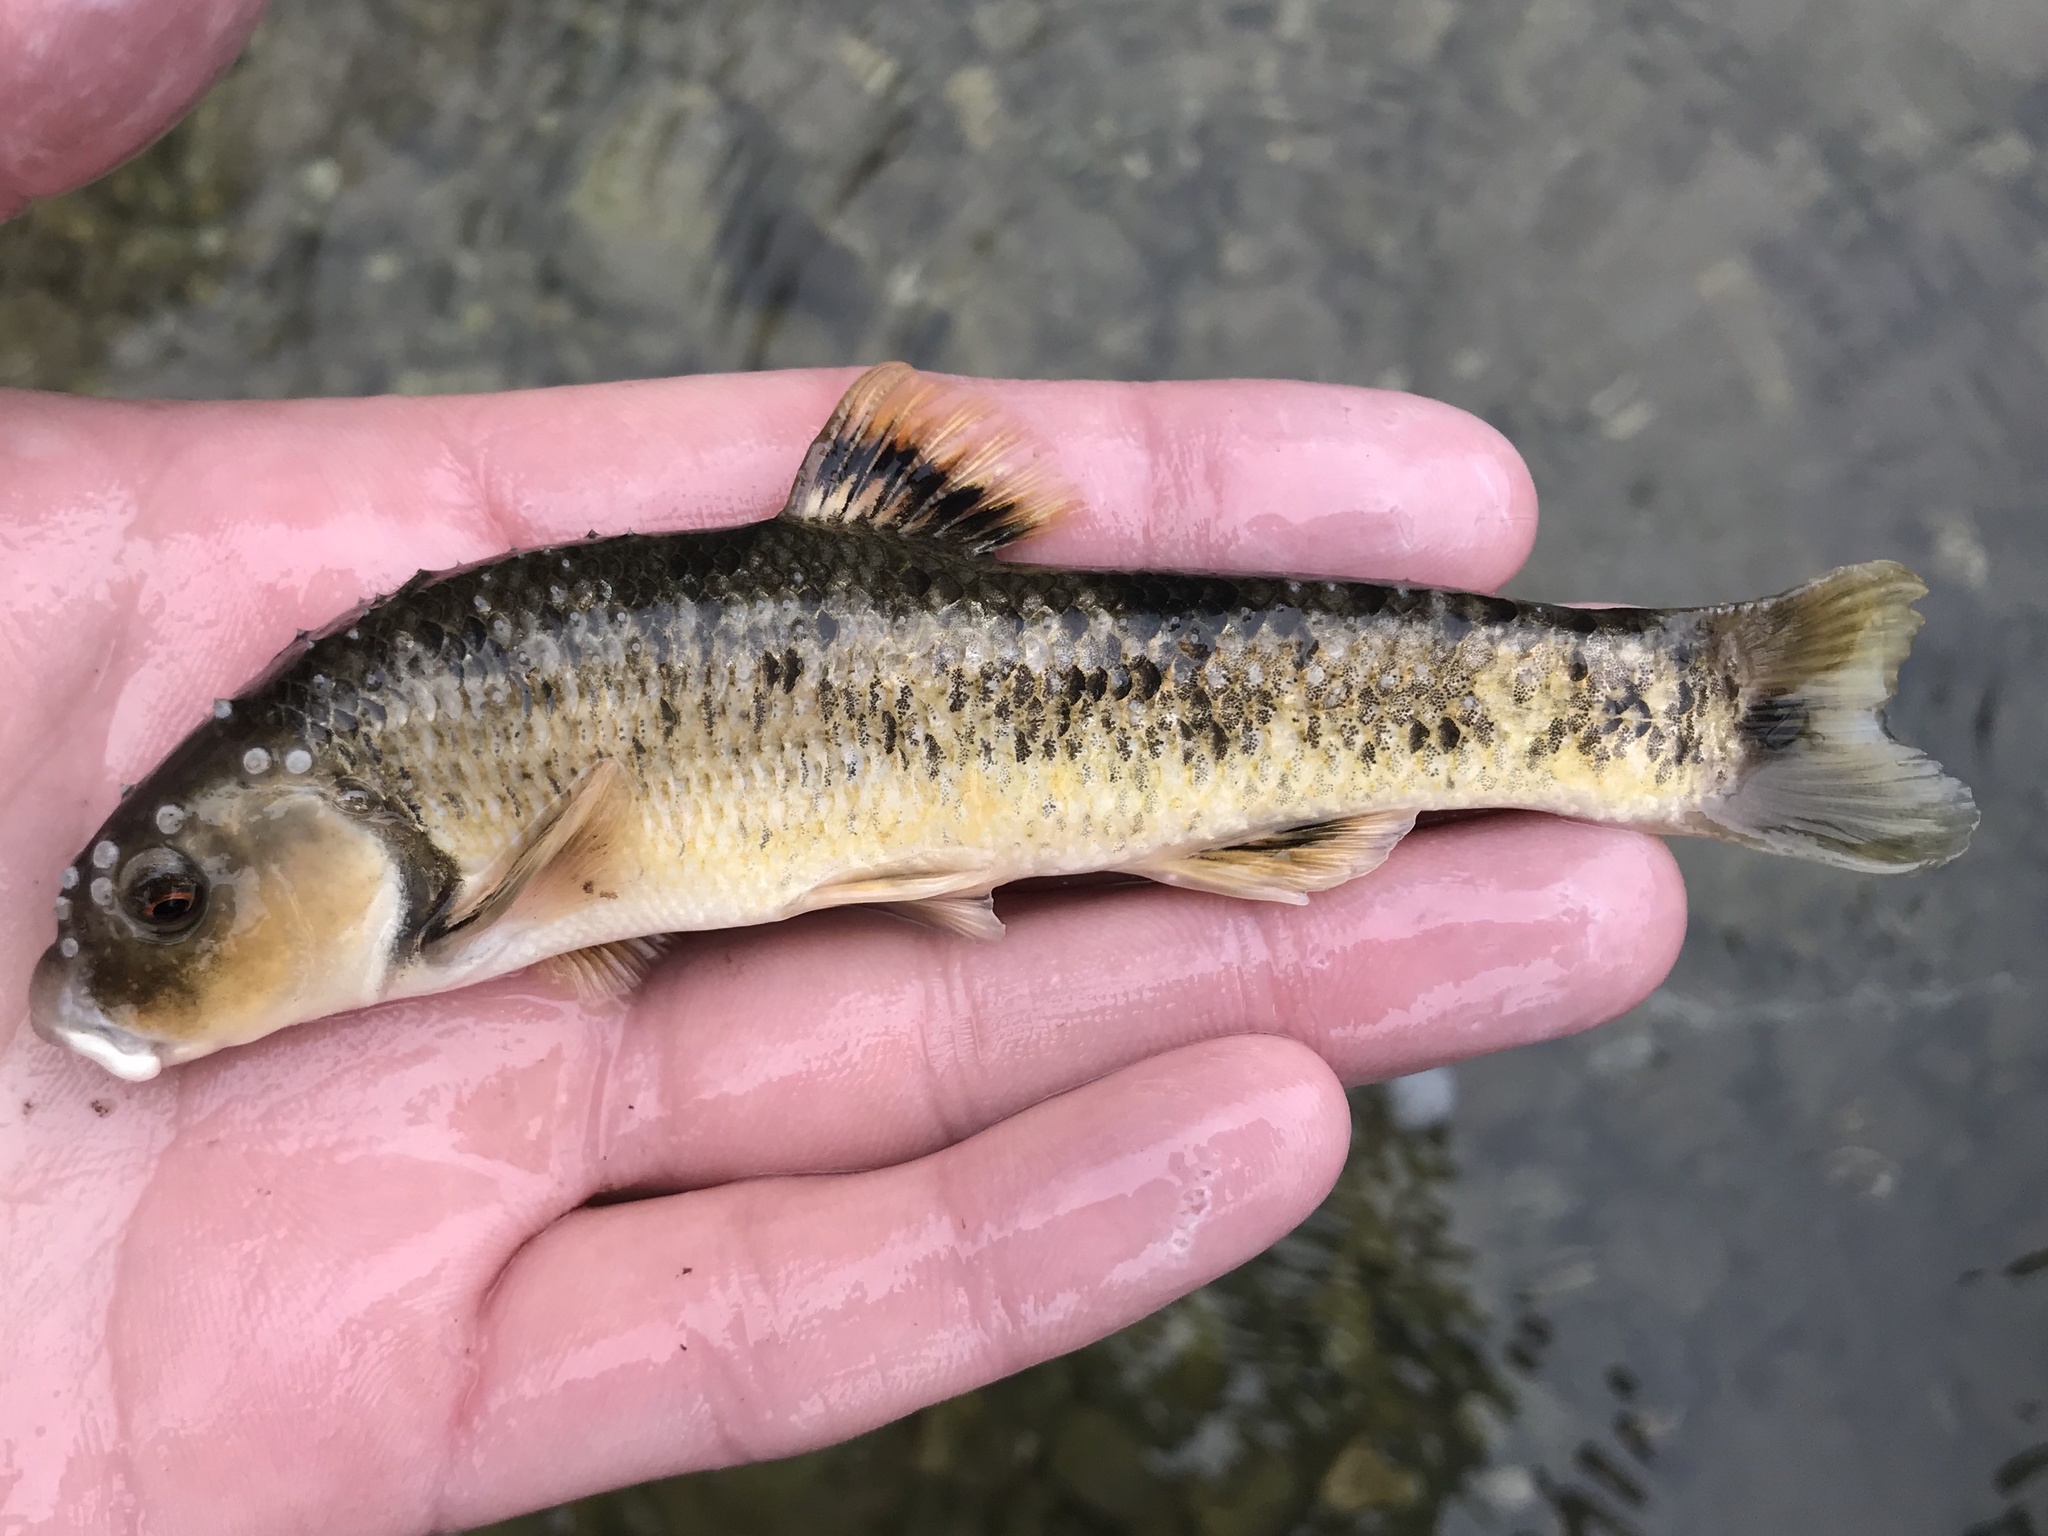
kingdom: Animalia
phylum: Chordata
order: Cypriniformes
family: Cyprinidae
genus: Campostoma
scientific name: Campostoma anomalum
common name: Central stoneroller
